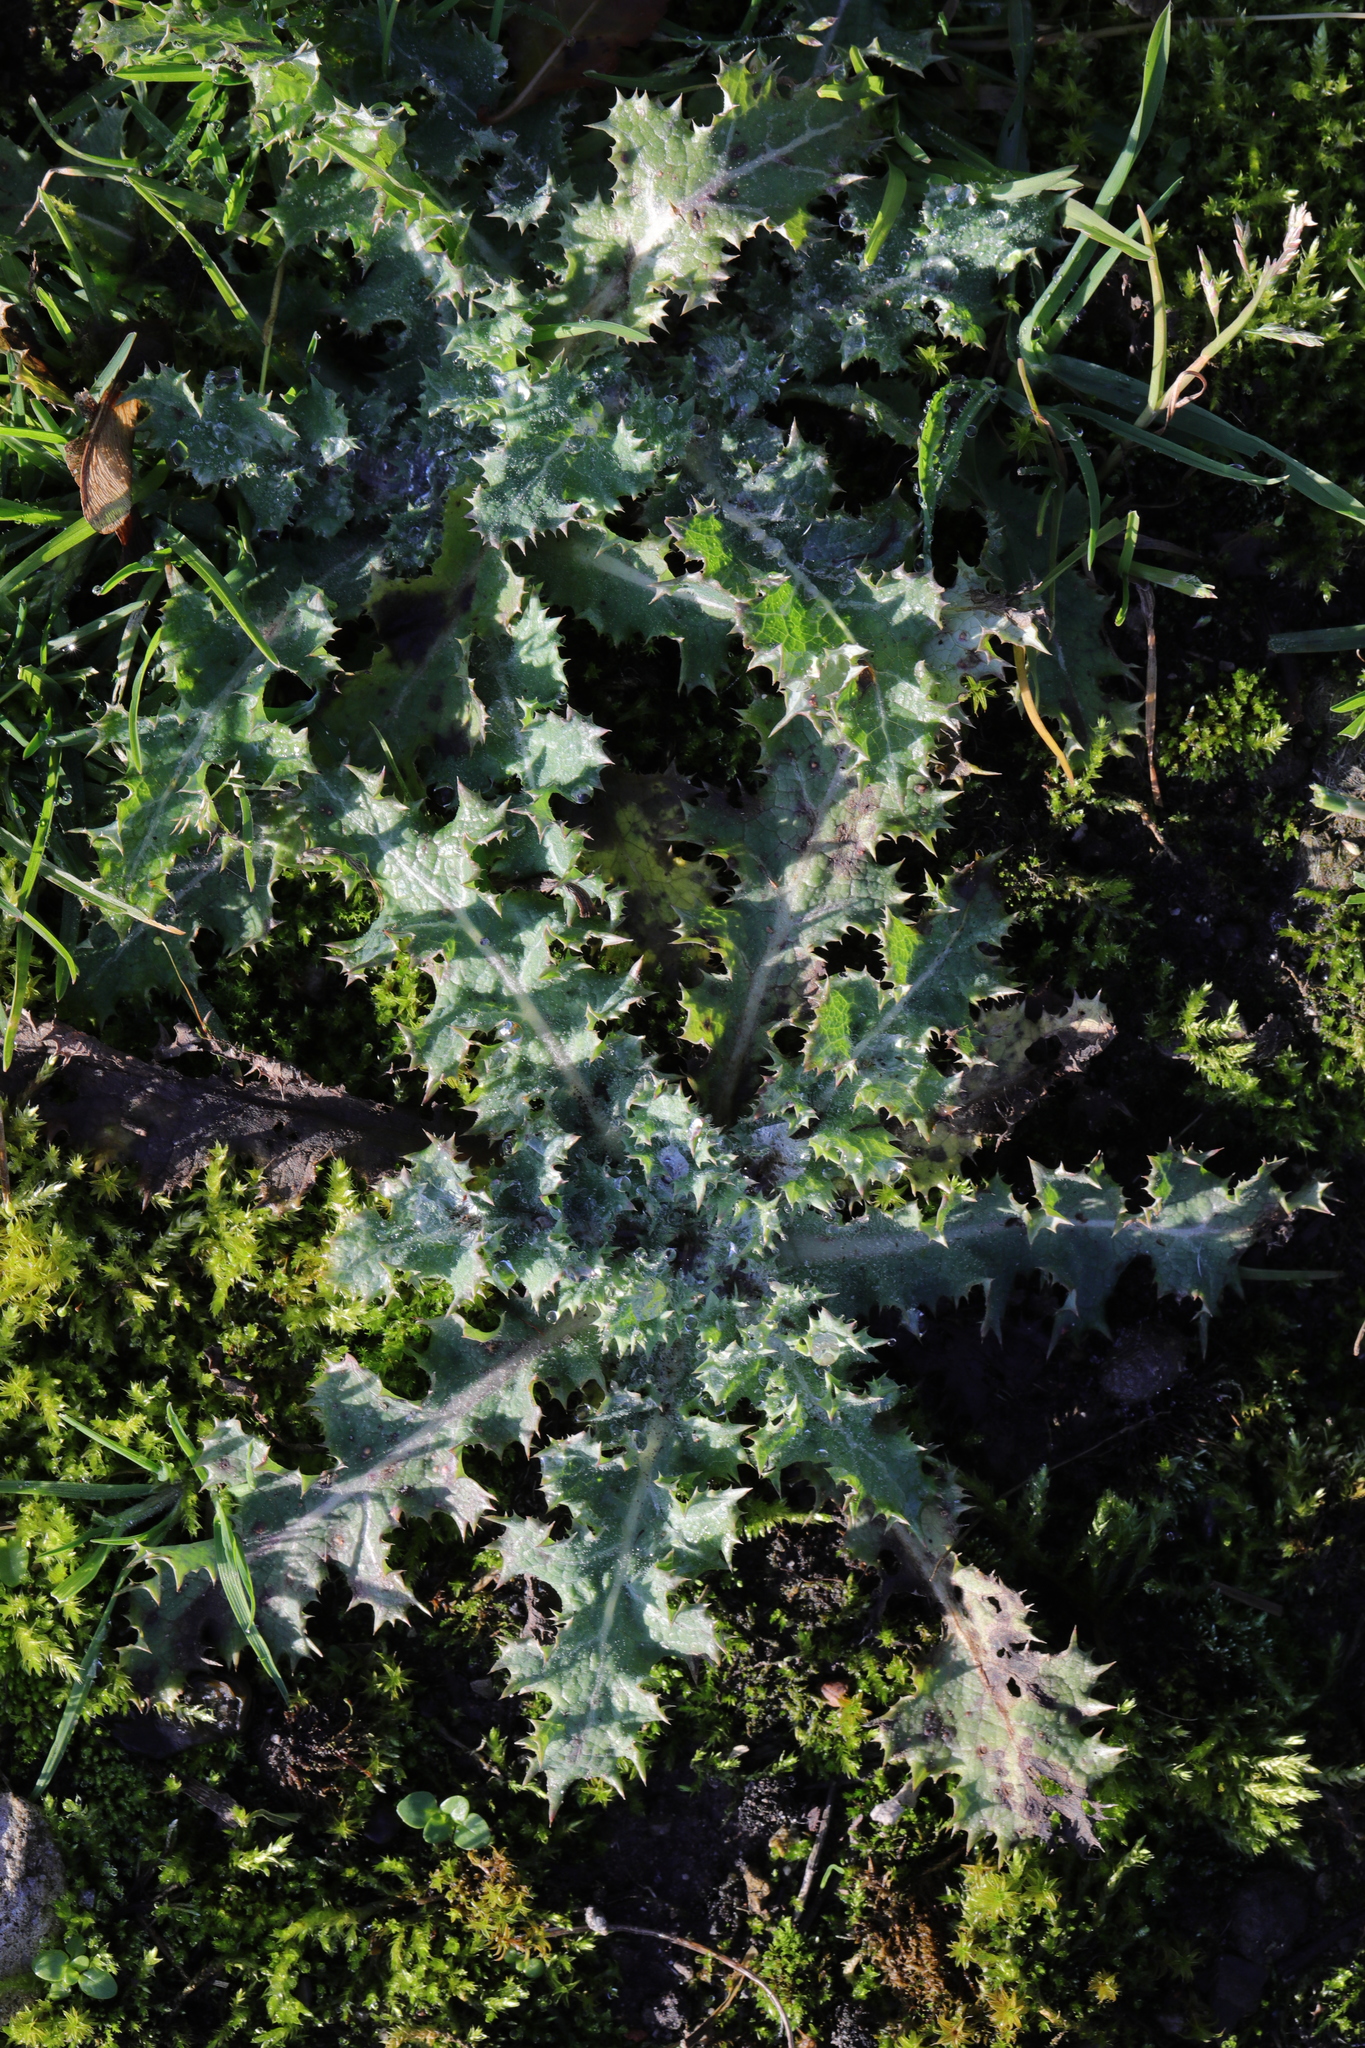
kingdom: Plantae
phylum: Tracheophyta
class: Magnoliopsida
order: Asterales
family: Asteraceae
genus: Cirsium
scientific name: Cirsium arvense
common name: Creeping thistle
